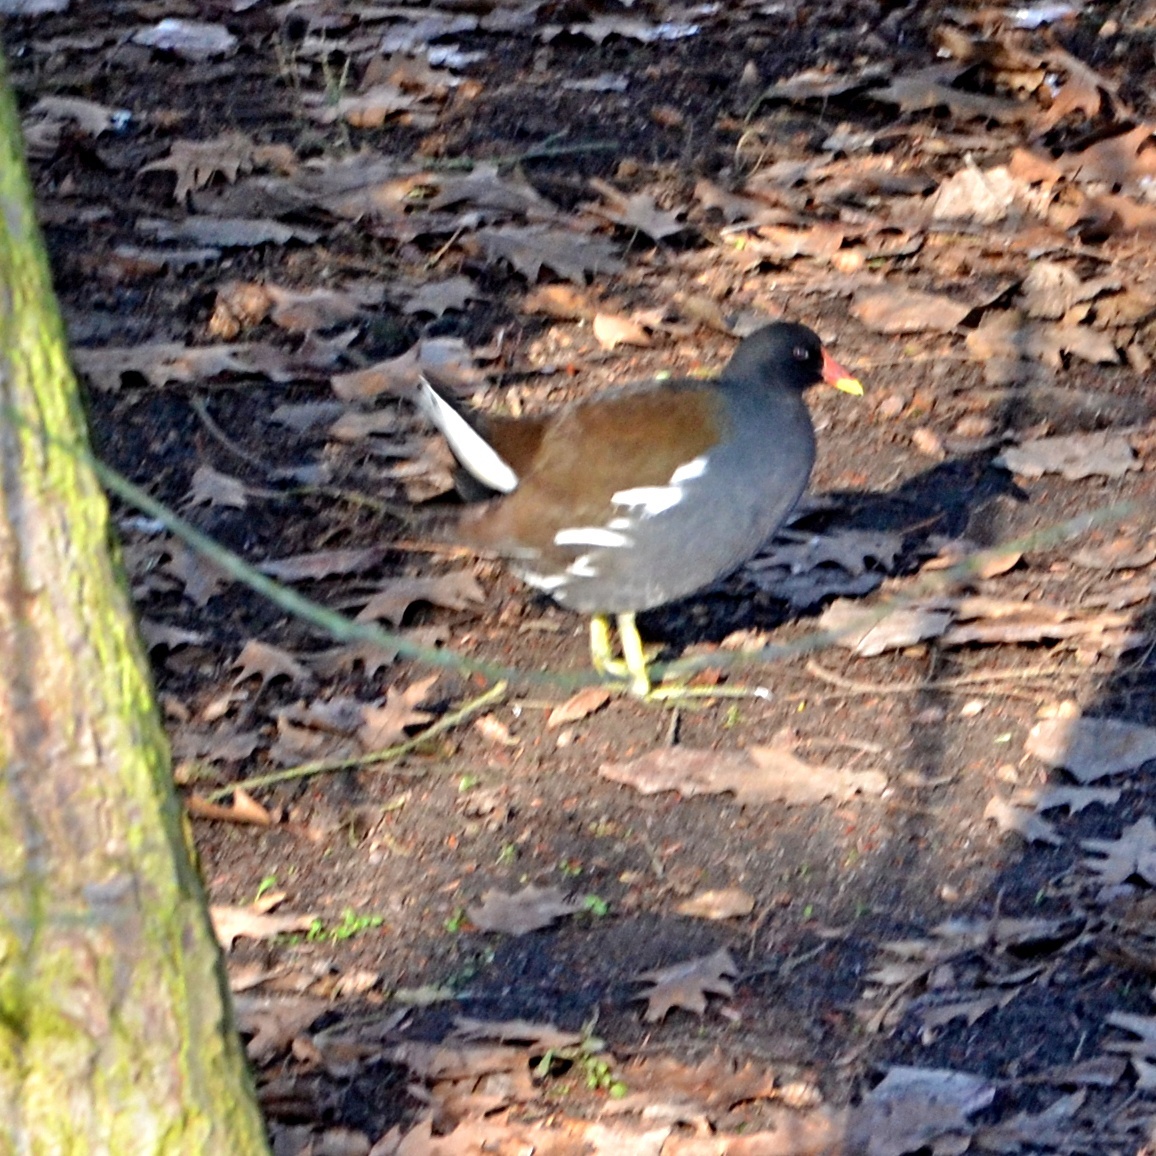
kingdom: Animalia
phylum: Chordata
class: Aves
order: Gruiformes
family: Rallidae
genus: Gallinula
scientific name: Gallinula chloropus
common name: Common moorhen
